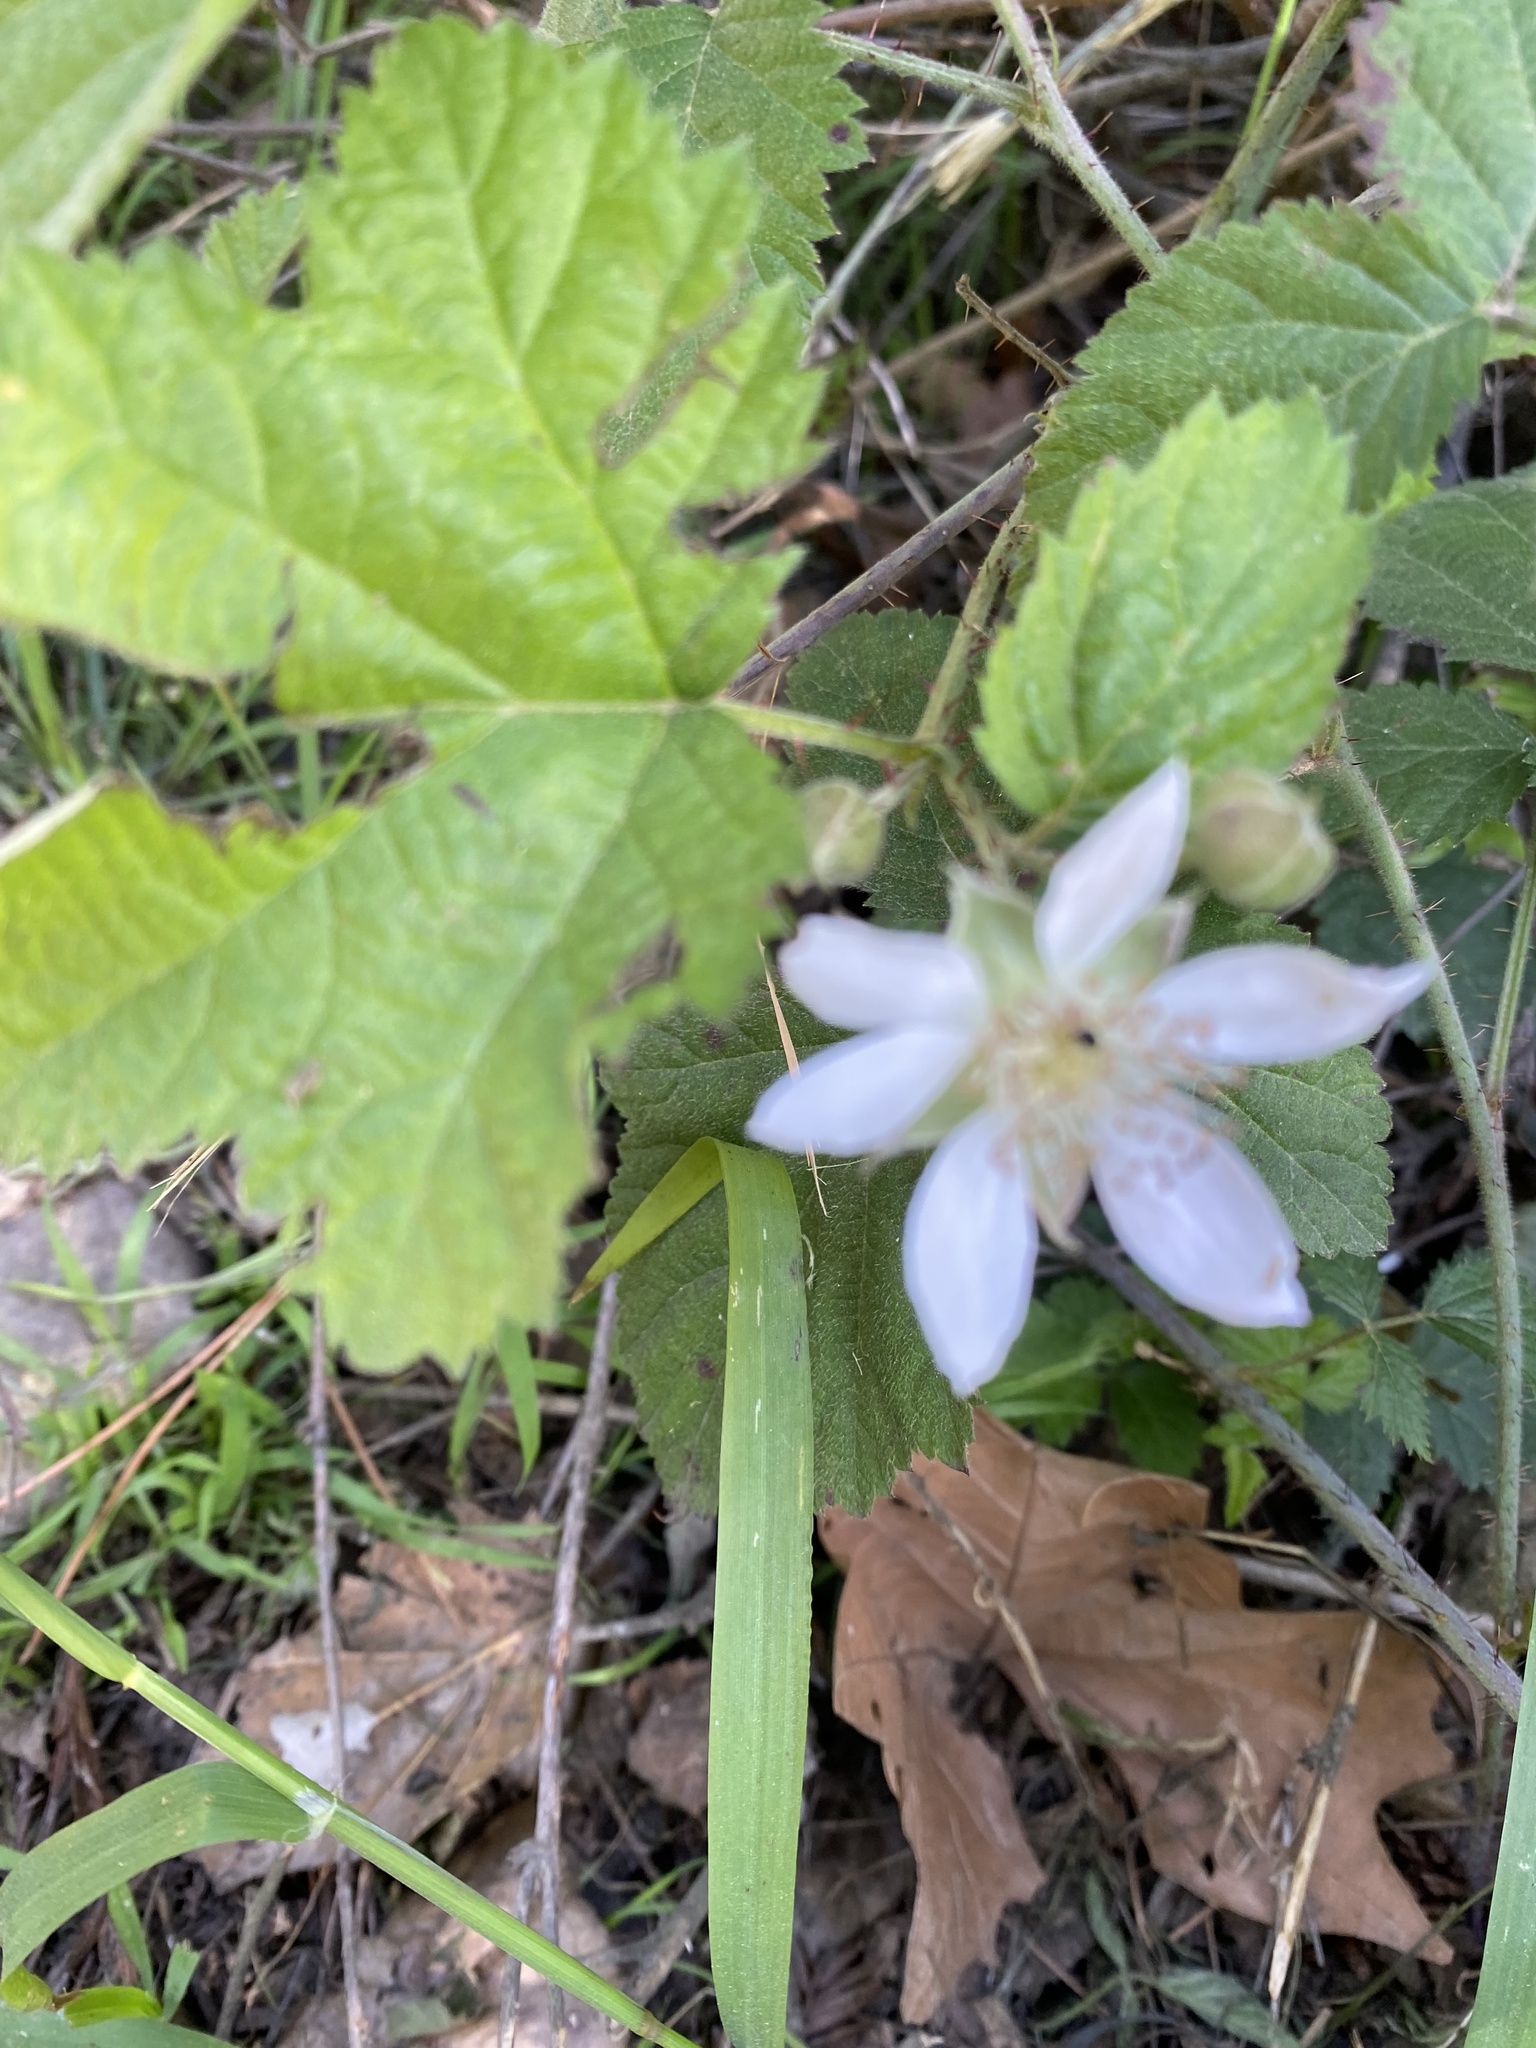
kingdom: Plantae
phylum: Tracheophyta
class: Magnoliopsida
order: Rosales
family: Rosaceae
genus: Rubus
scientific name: Rubus ursinus
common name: Pacific blackberry
